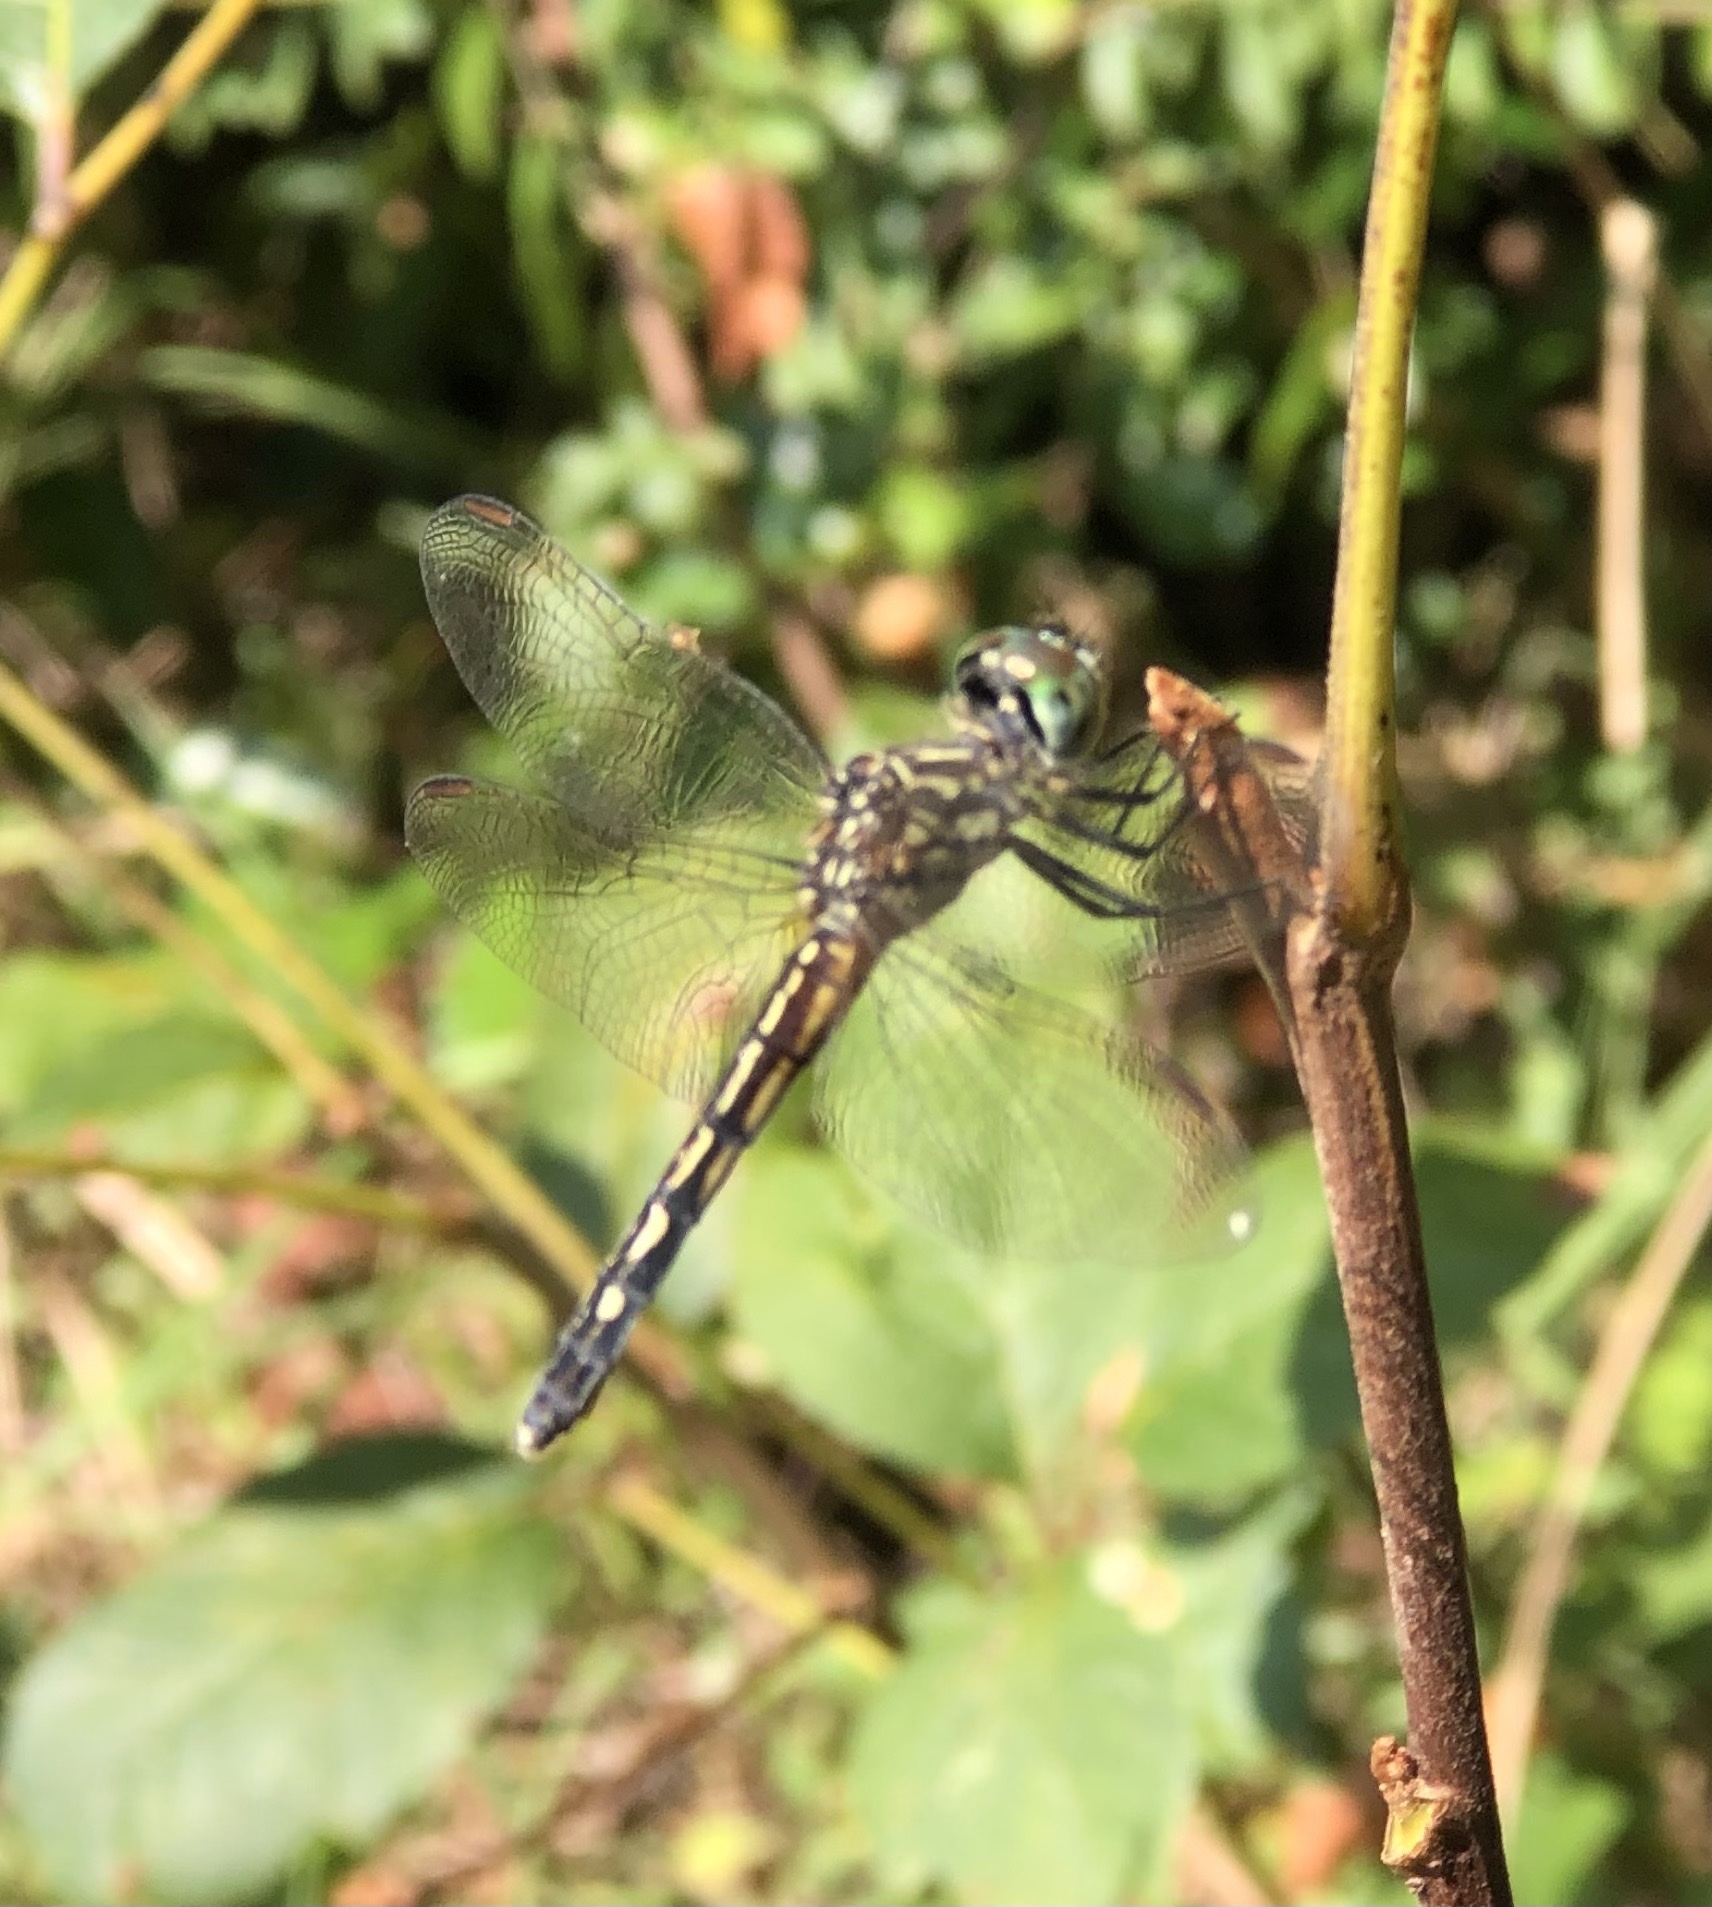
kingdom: Animalia
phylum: Arthropoda
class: Insecta
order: Odonata
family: Libellulidae
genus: Pachydiplax
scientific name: Pachydiplax longipennis
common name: Blue dasher
